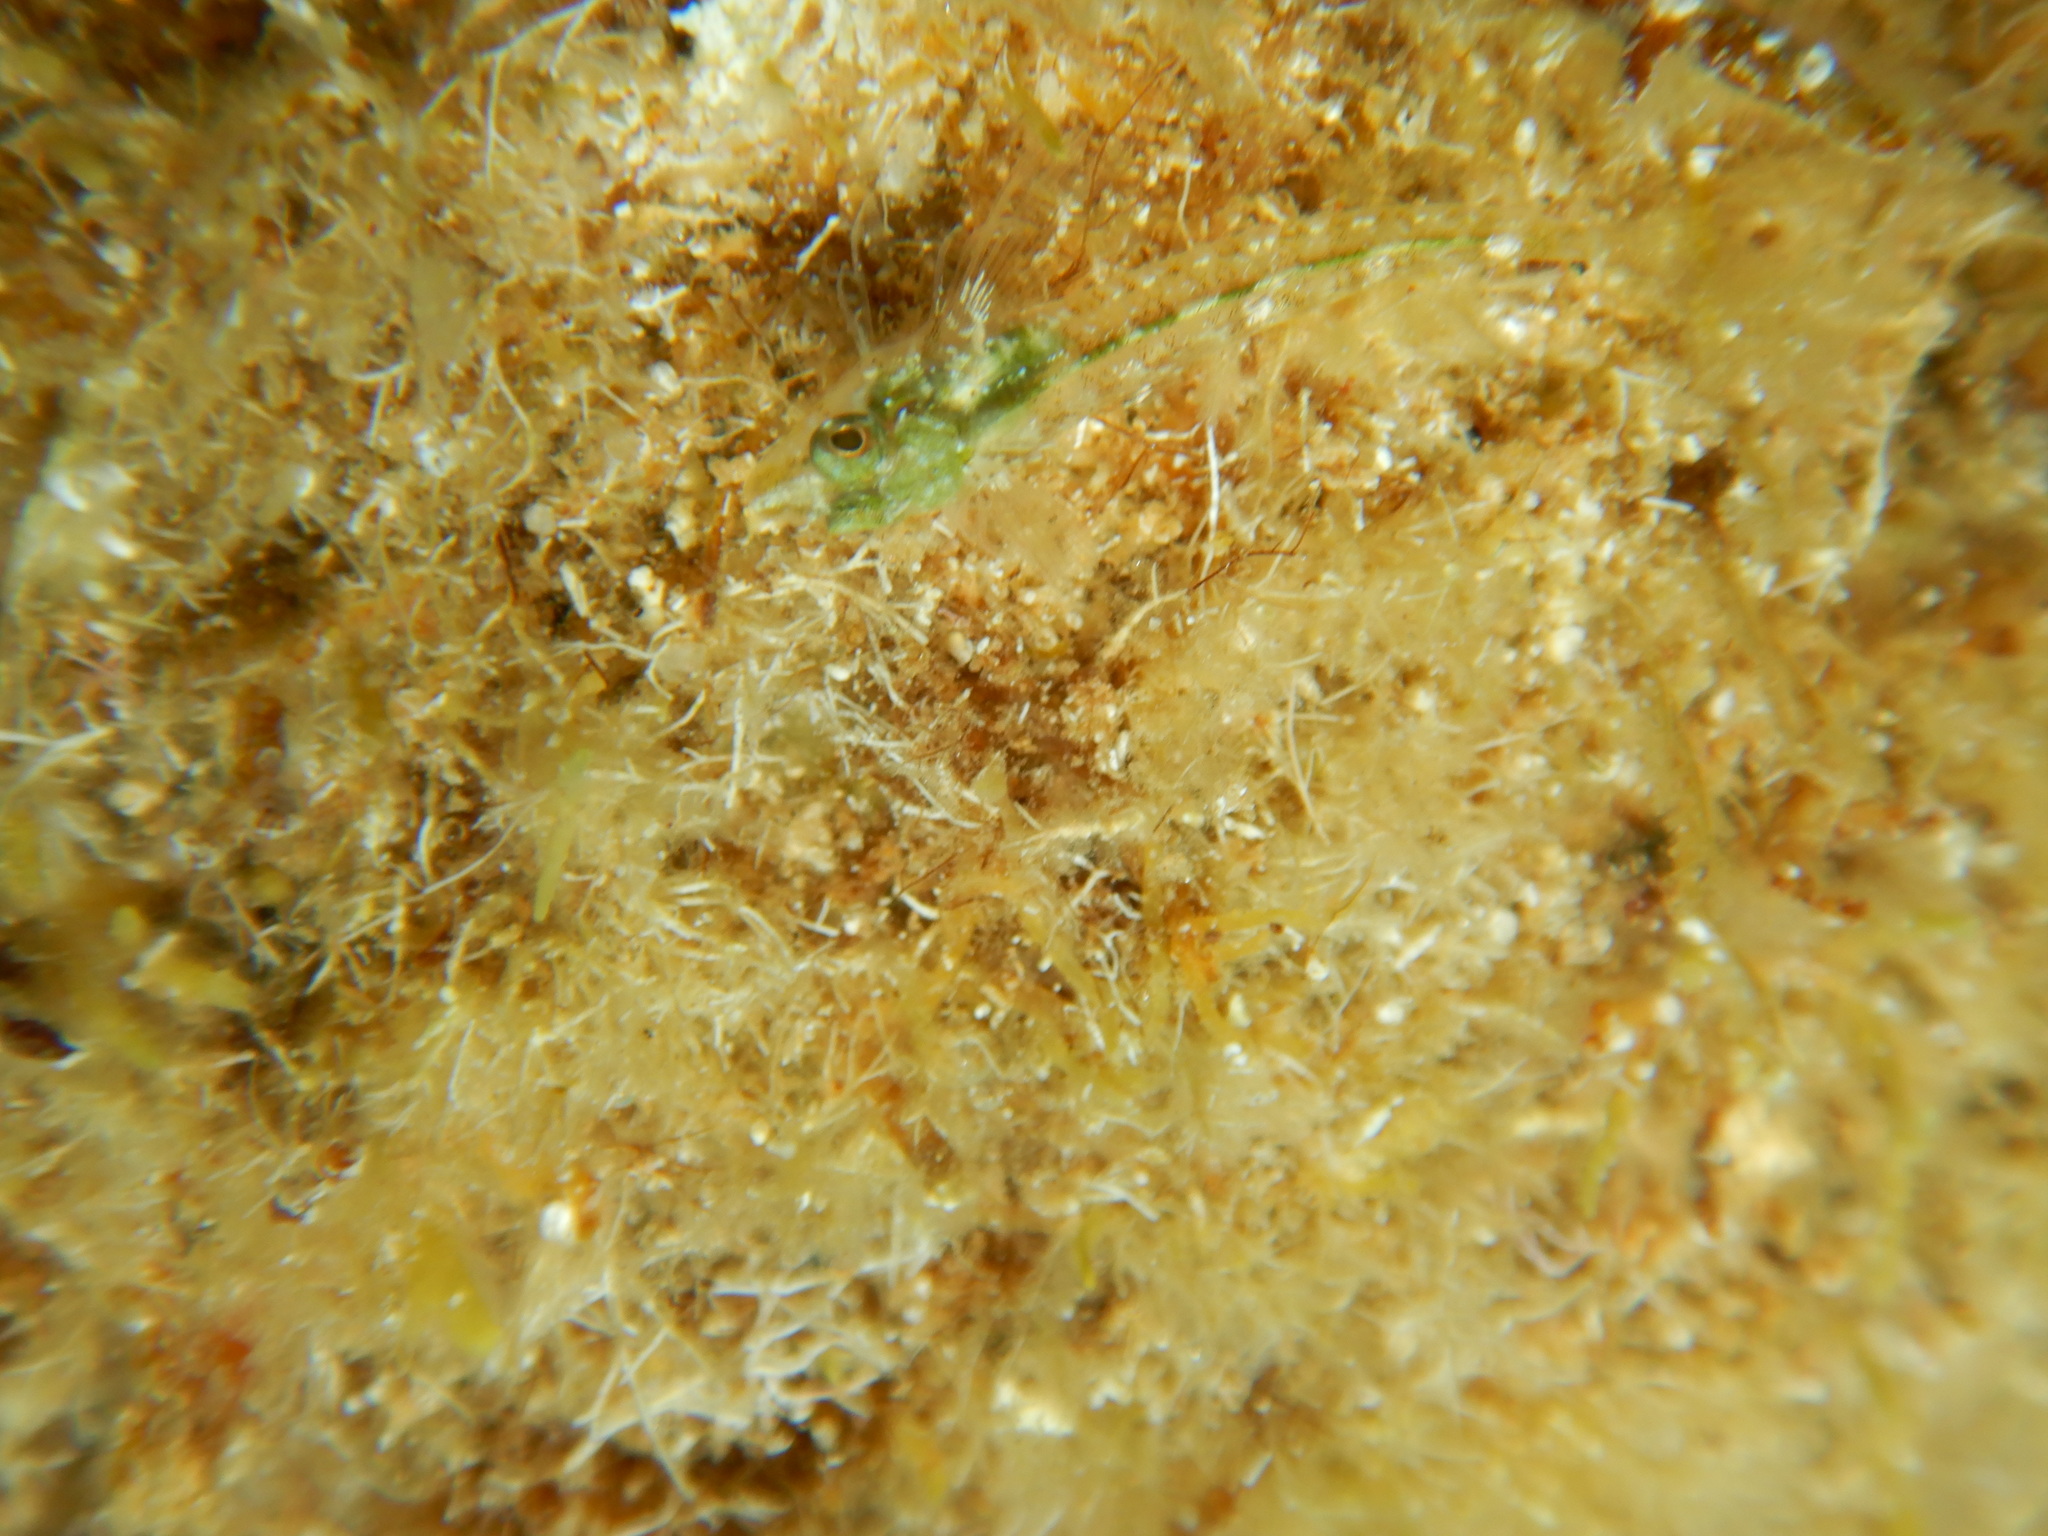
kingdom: Animalia
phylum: Chordata
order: Perciformes
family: Tripterygiidae
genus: Tripterygion
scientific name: Tripterygion tripteronotum
